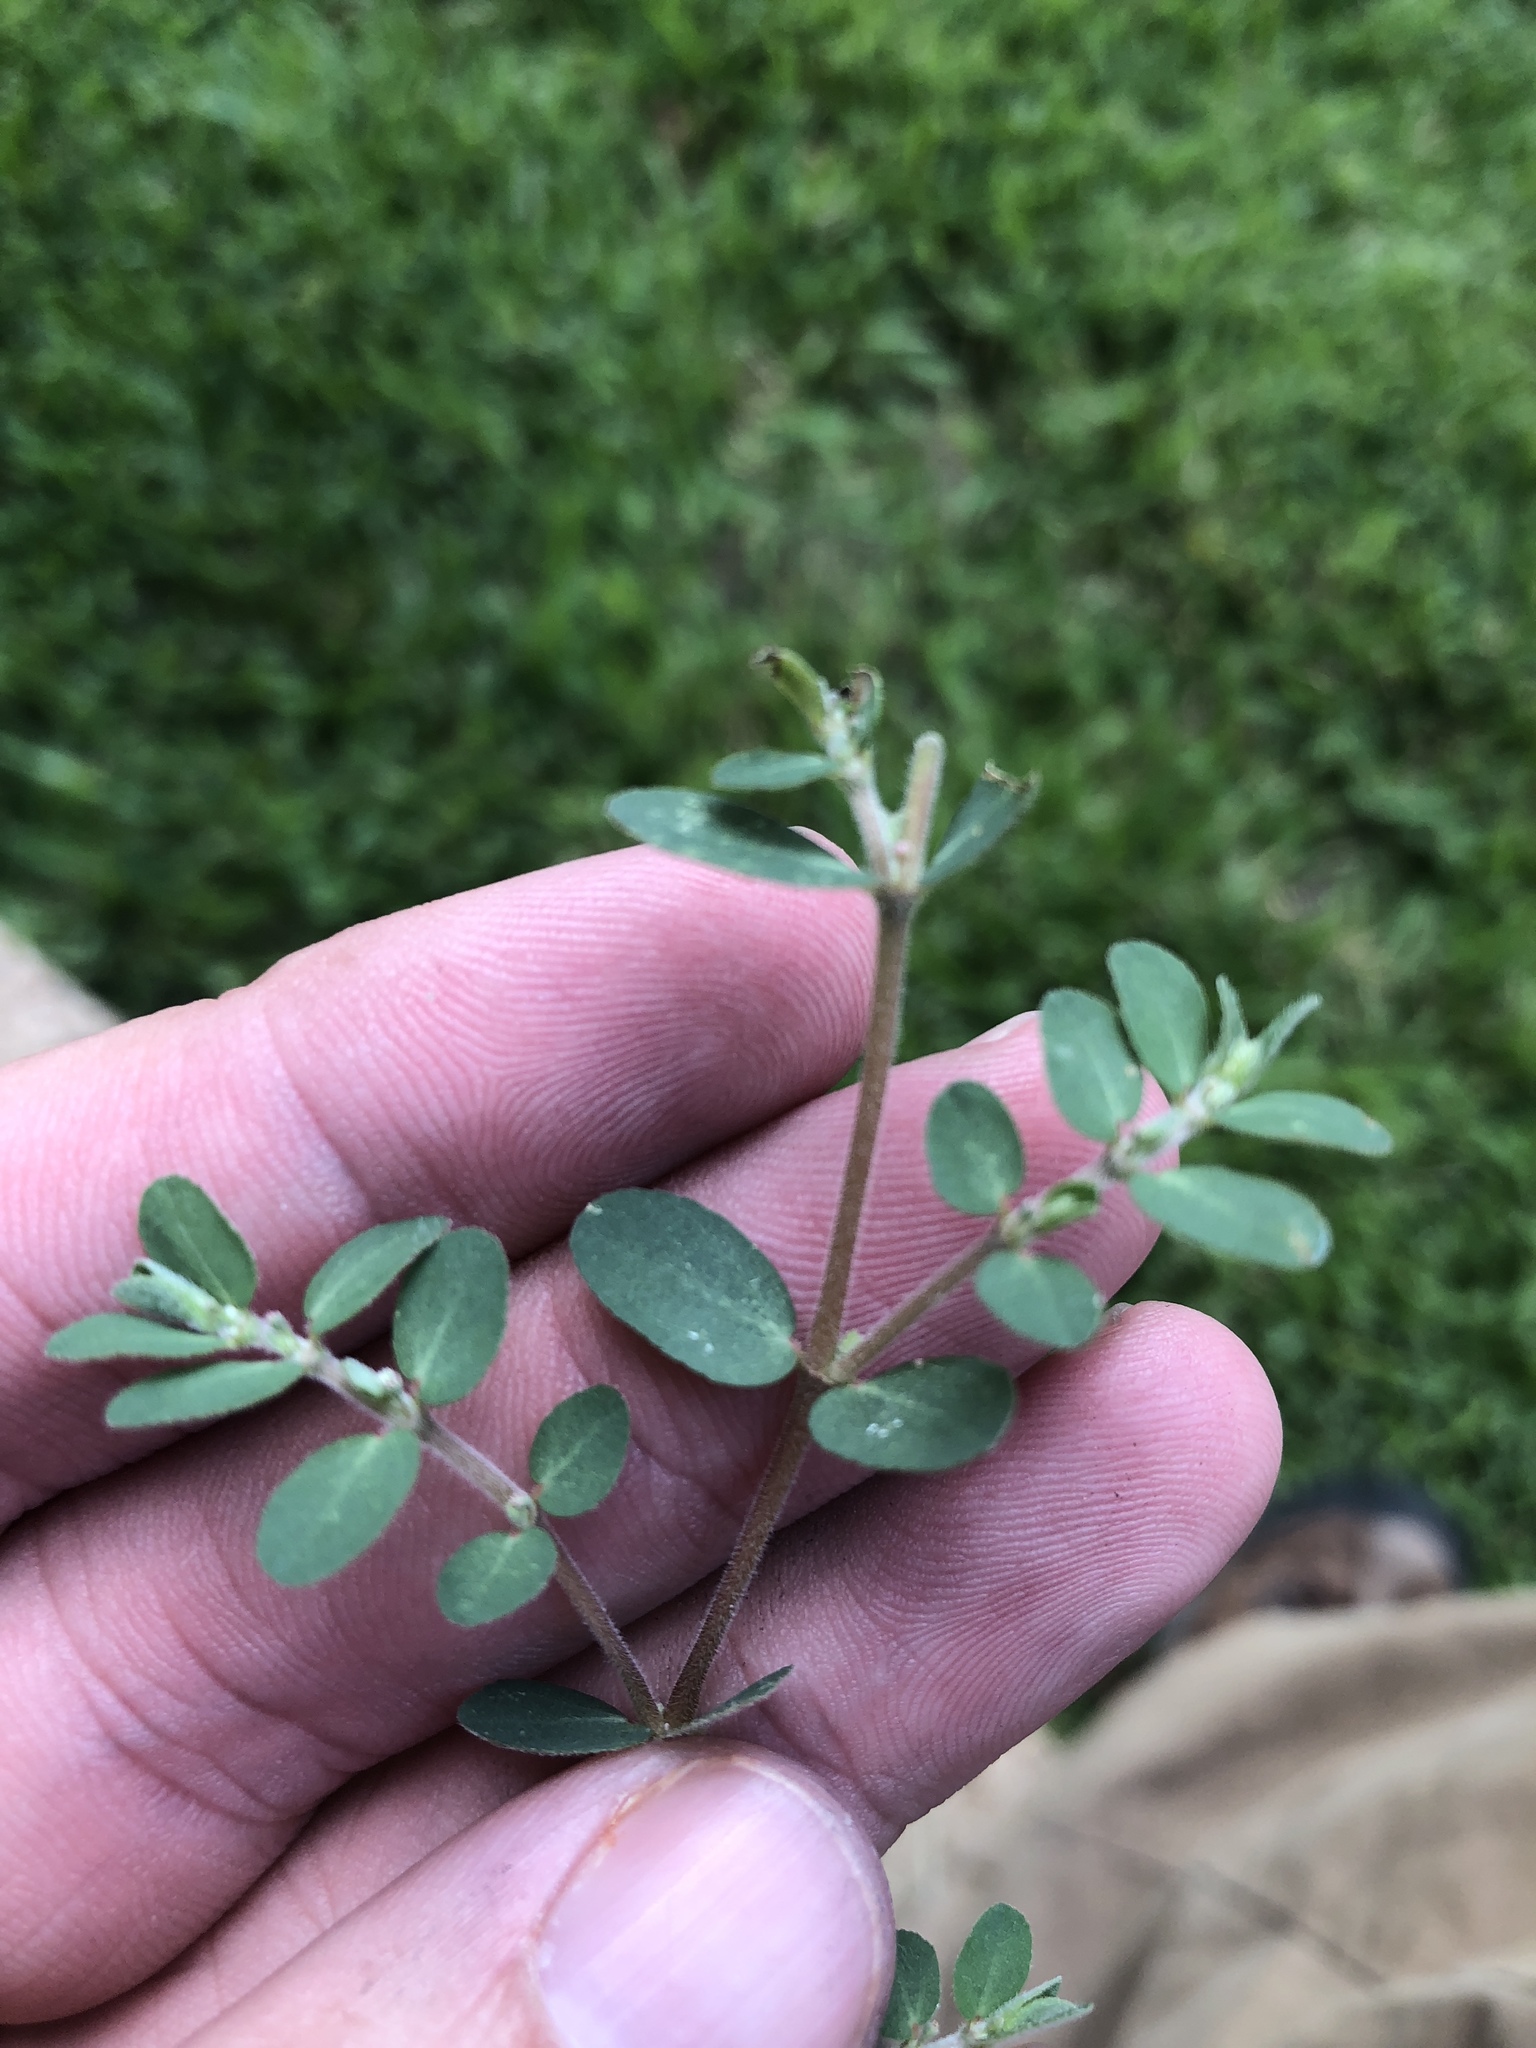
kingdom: Plantae
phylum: Tracheophyta
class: Magnoliopsida
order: Malpighiales
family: Euphorbiaceae
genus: Euphorbia
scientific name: Euphorbia prostrata
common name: Prostrate sandmat
